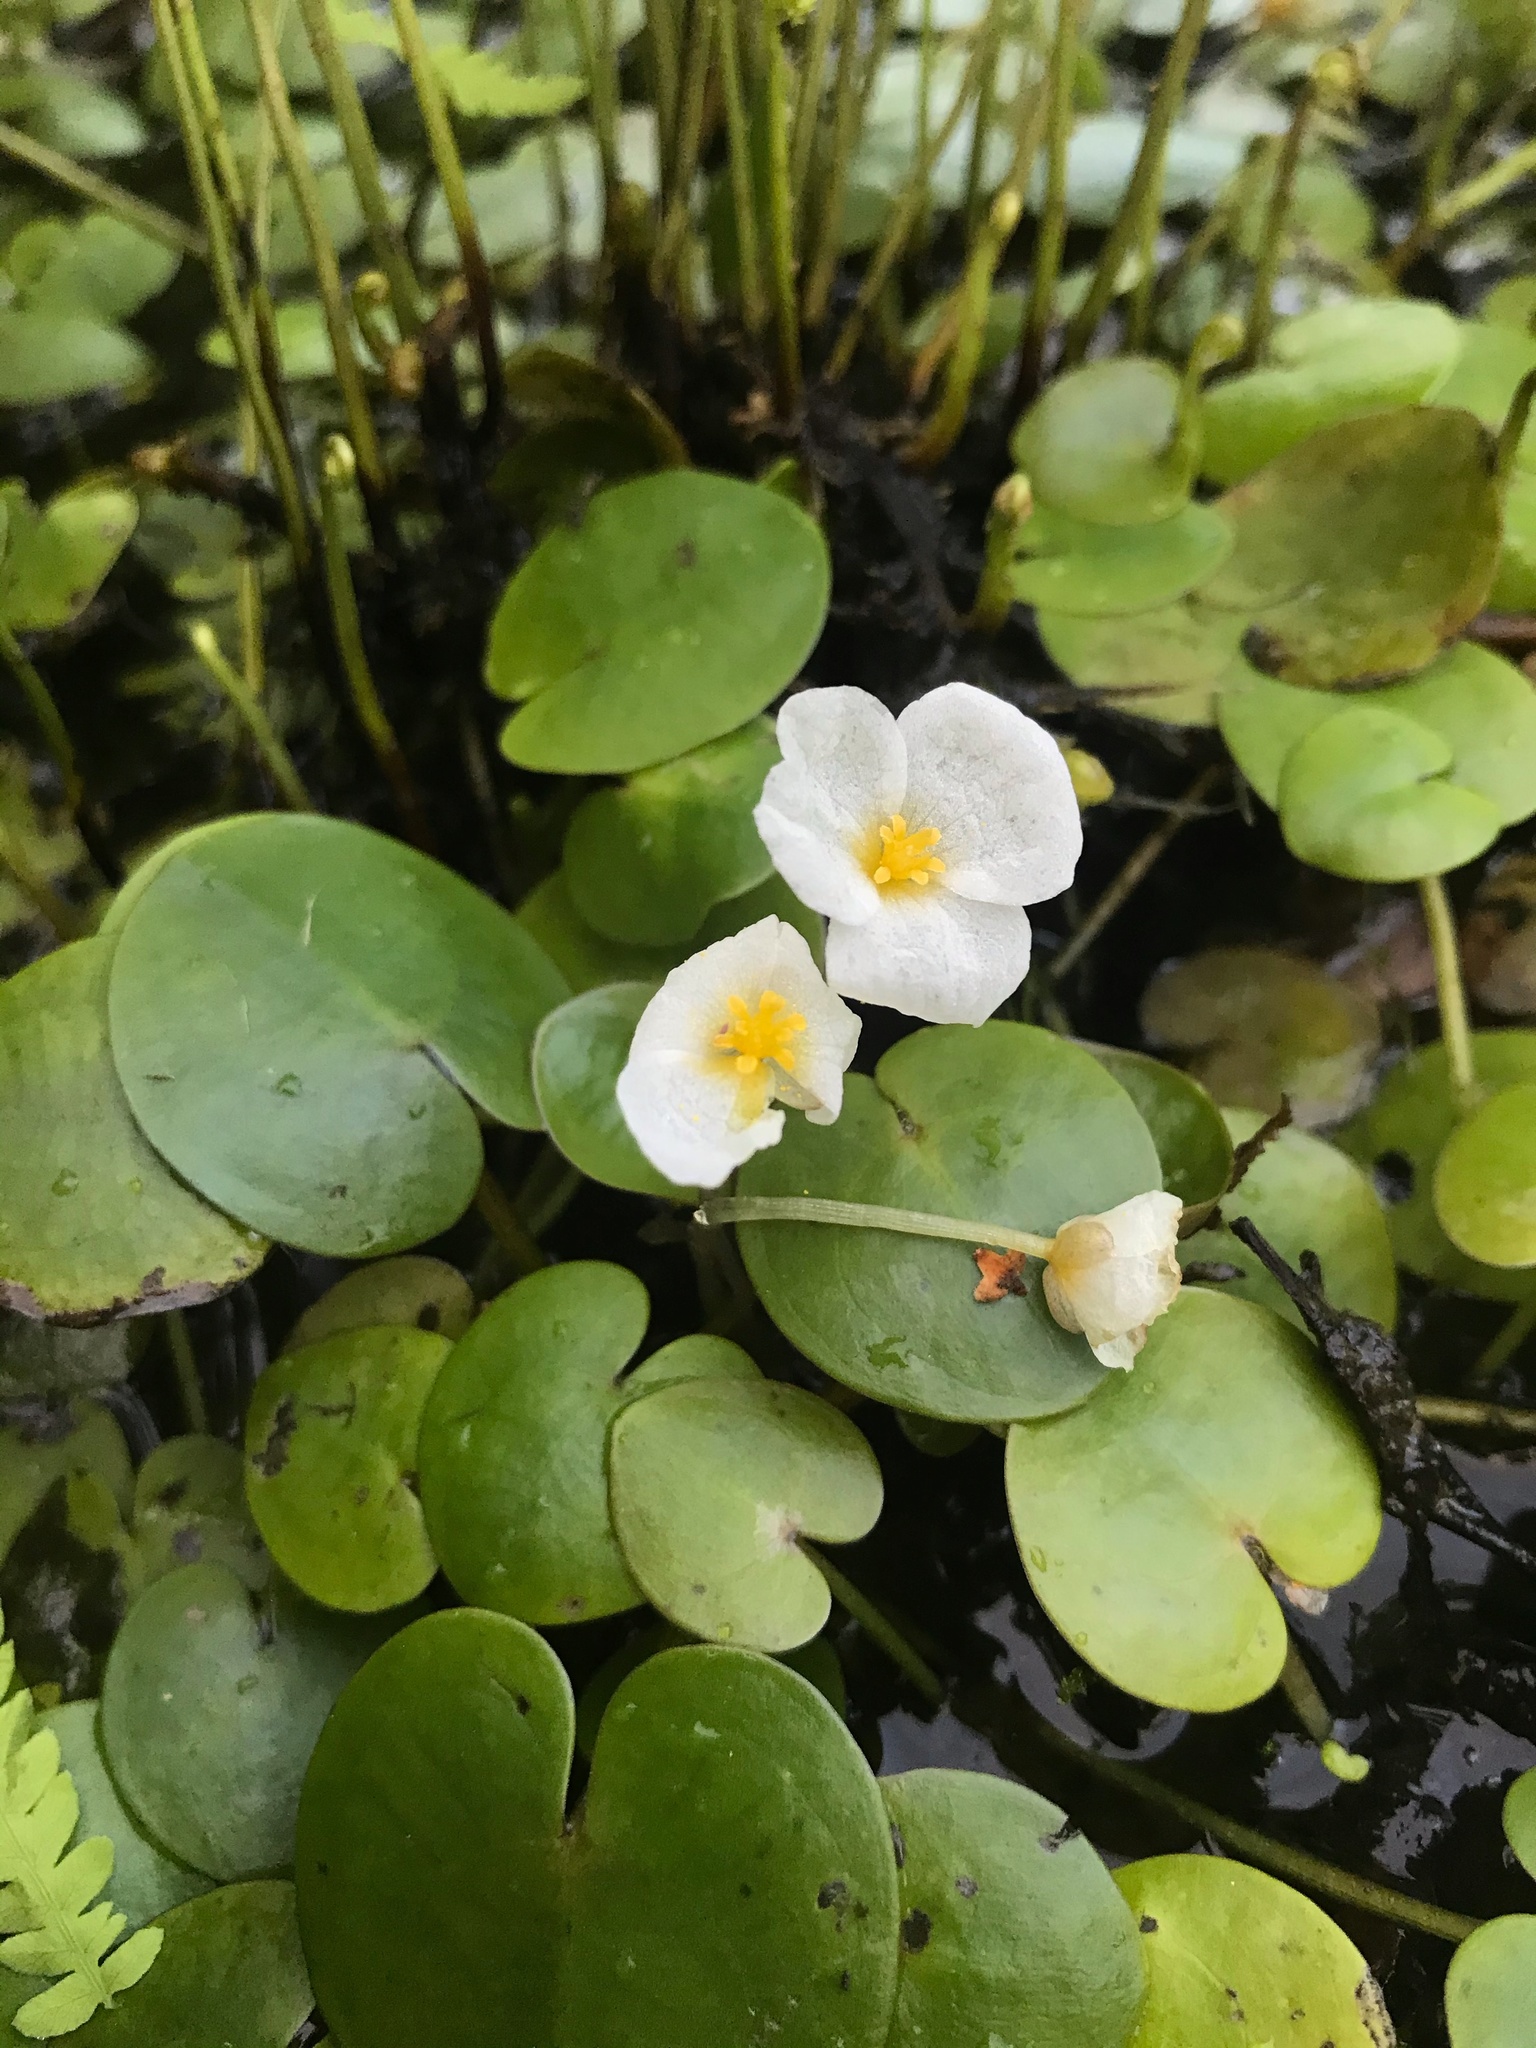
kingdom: Plantae
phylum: Tracheophyta
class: Liliopsida
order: Alismatales
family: Hydrocharitaceae
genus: Hydrocharis
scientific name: Hydrocharis morsus-ranae
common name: Frogbit
